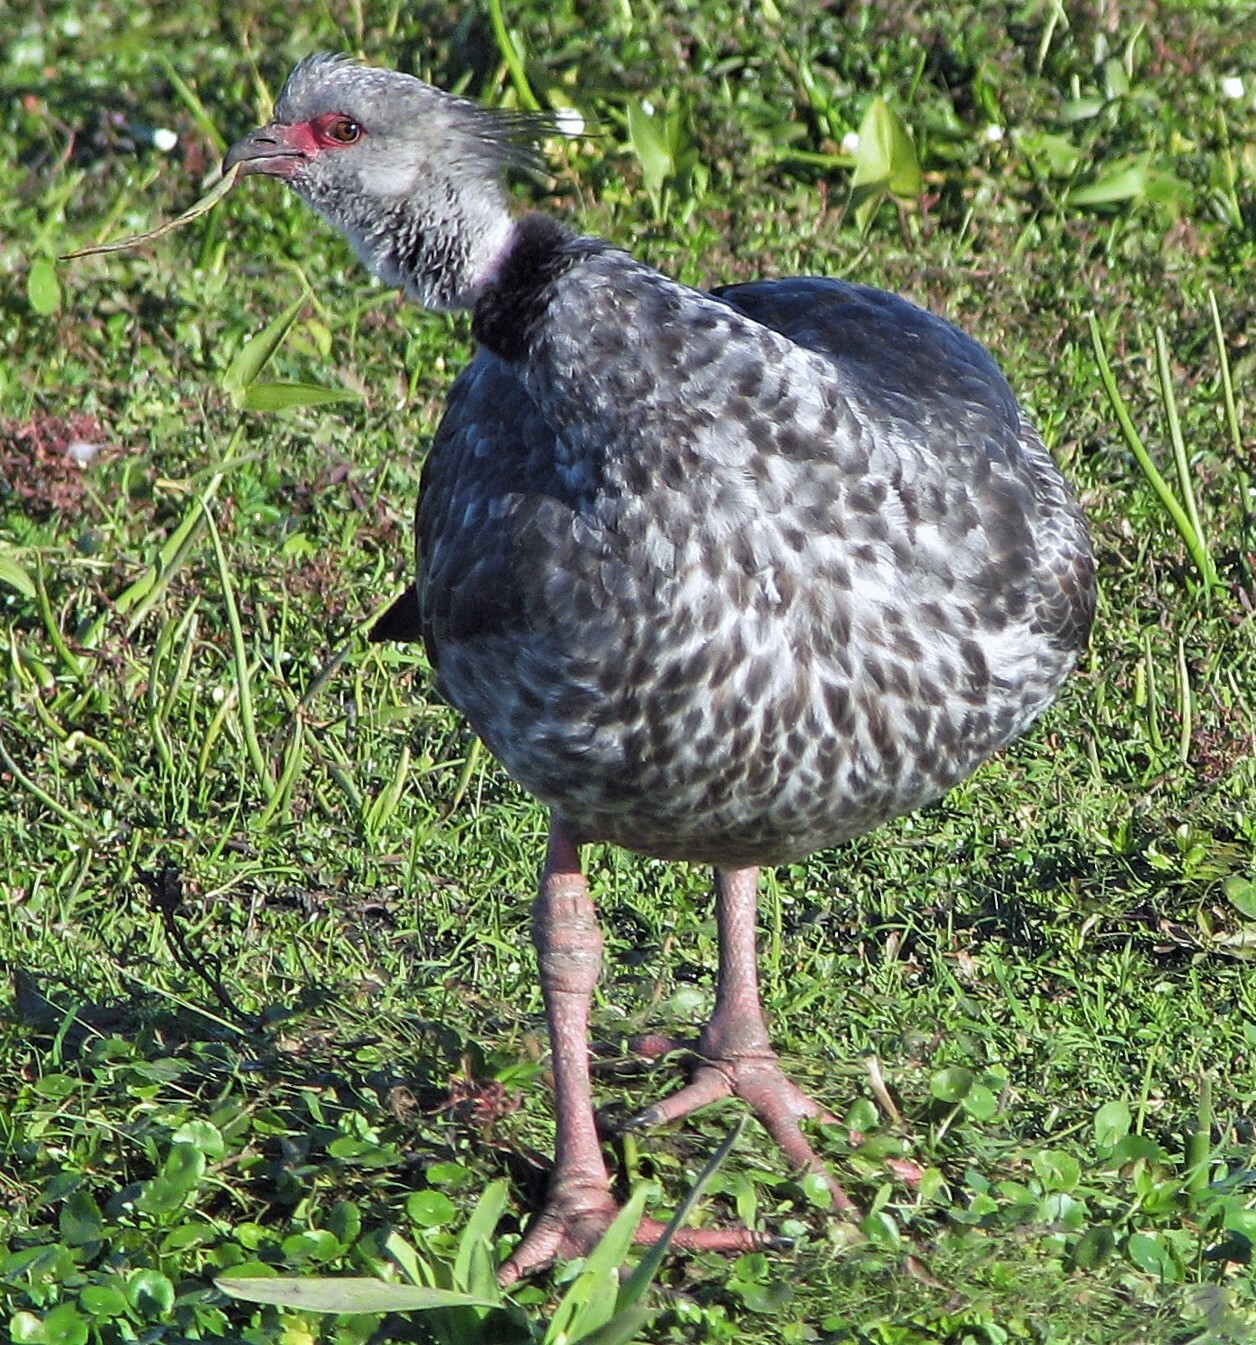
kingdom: Animalia
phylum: Chordata
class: Aves
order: Anseriformes
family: Anhimidae
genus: Chauna
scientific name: Chauna torquata
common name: Southern screamer
